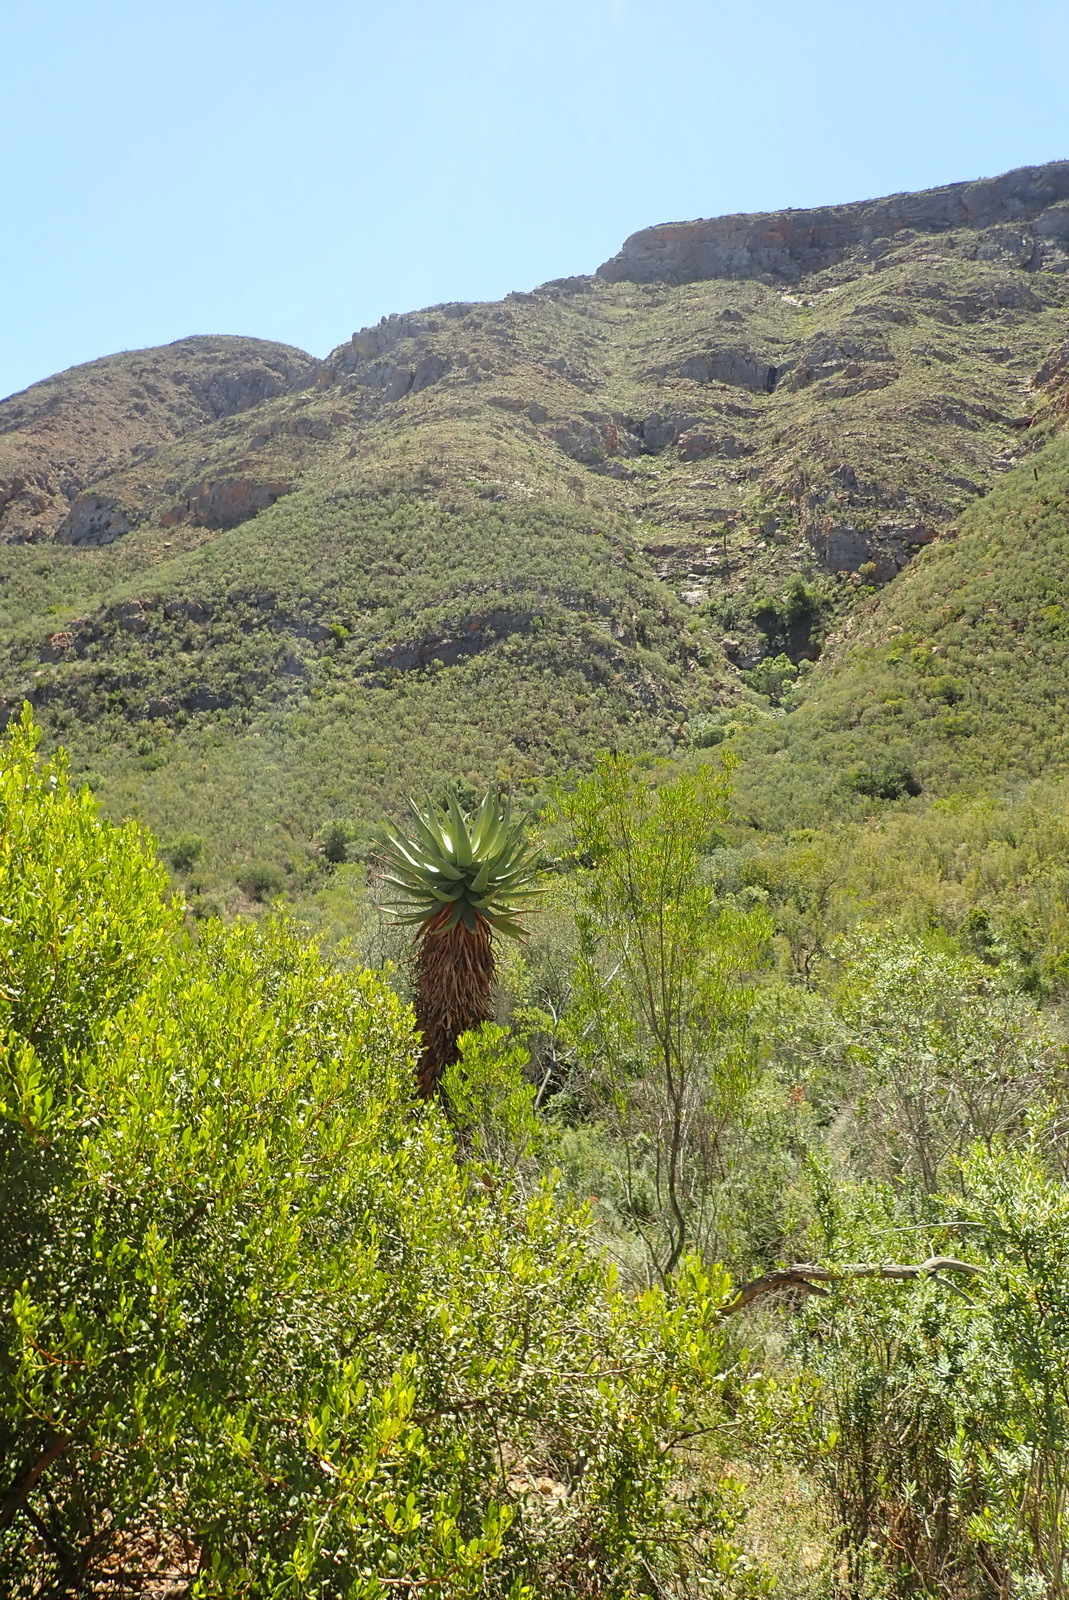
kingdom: Plantae
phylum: Tracheophyta
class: Liliopsida
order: Asparagales
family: Asphodelaceae
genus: Aloe
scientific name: Aloe ferox
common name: Bitter aloe
